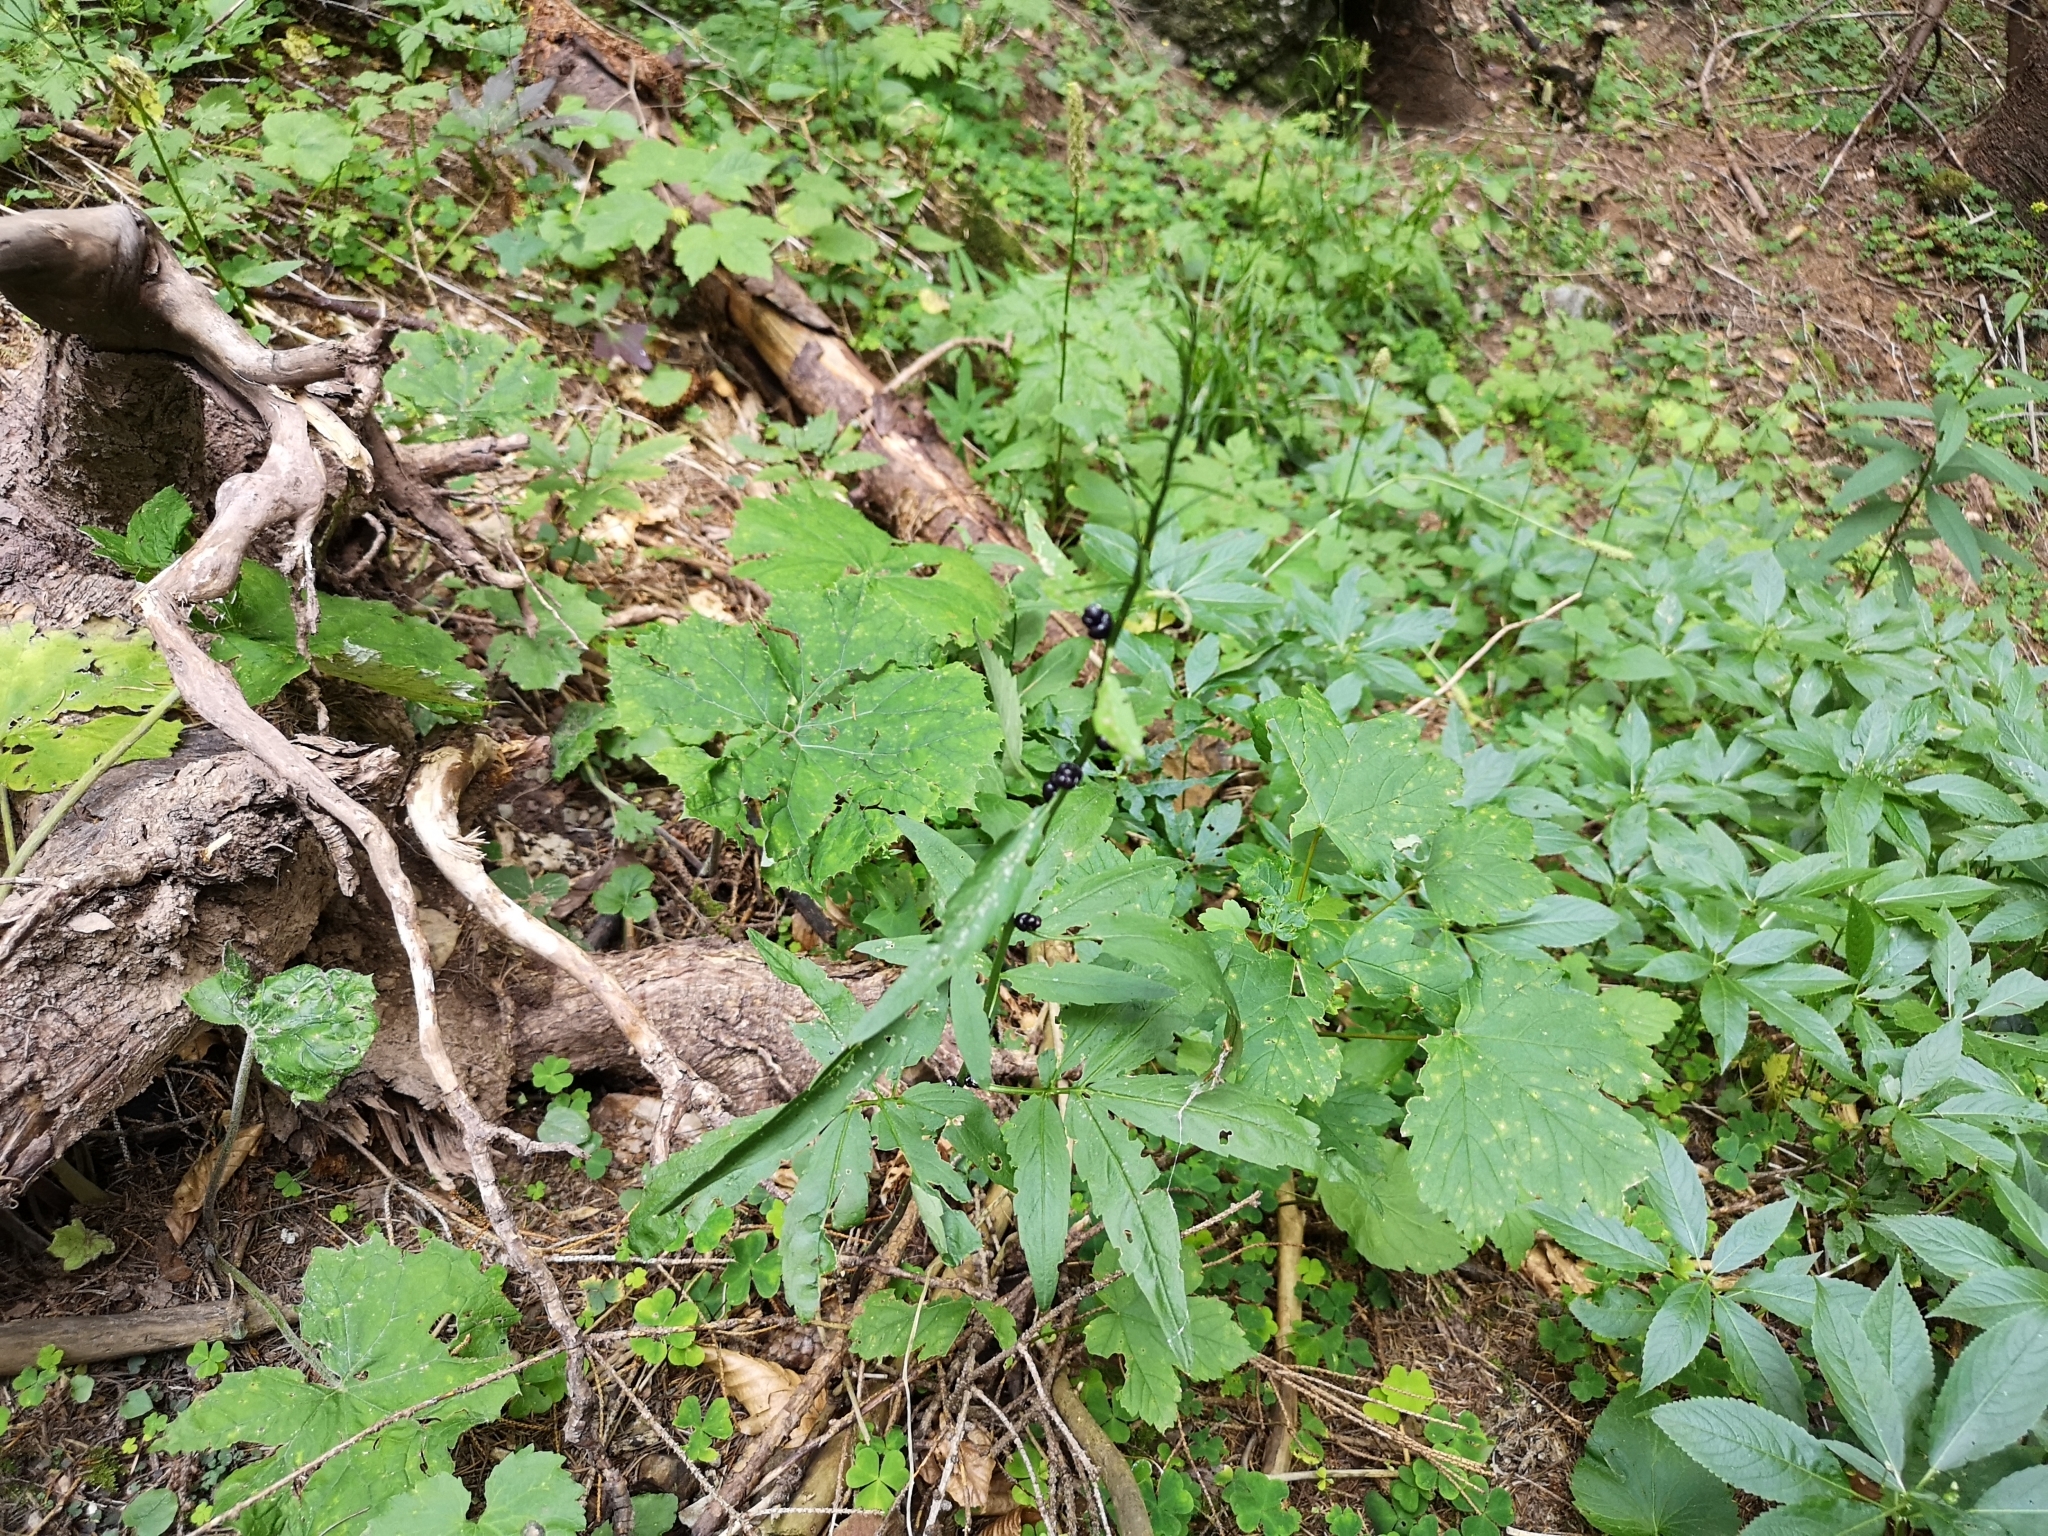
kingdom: Plantae
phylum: Tracheophyta
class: Magnoliopsida
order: Brassicales
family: Brassicaceae
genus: Cardamine
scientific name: Cardamine bulbifera
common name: Coralroot bittercress
